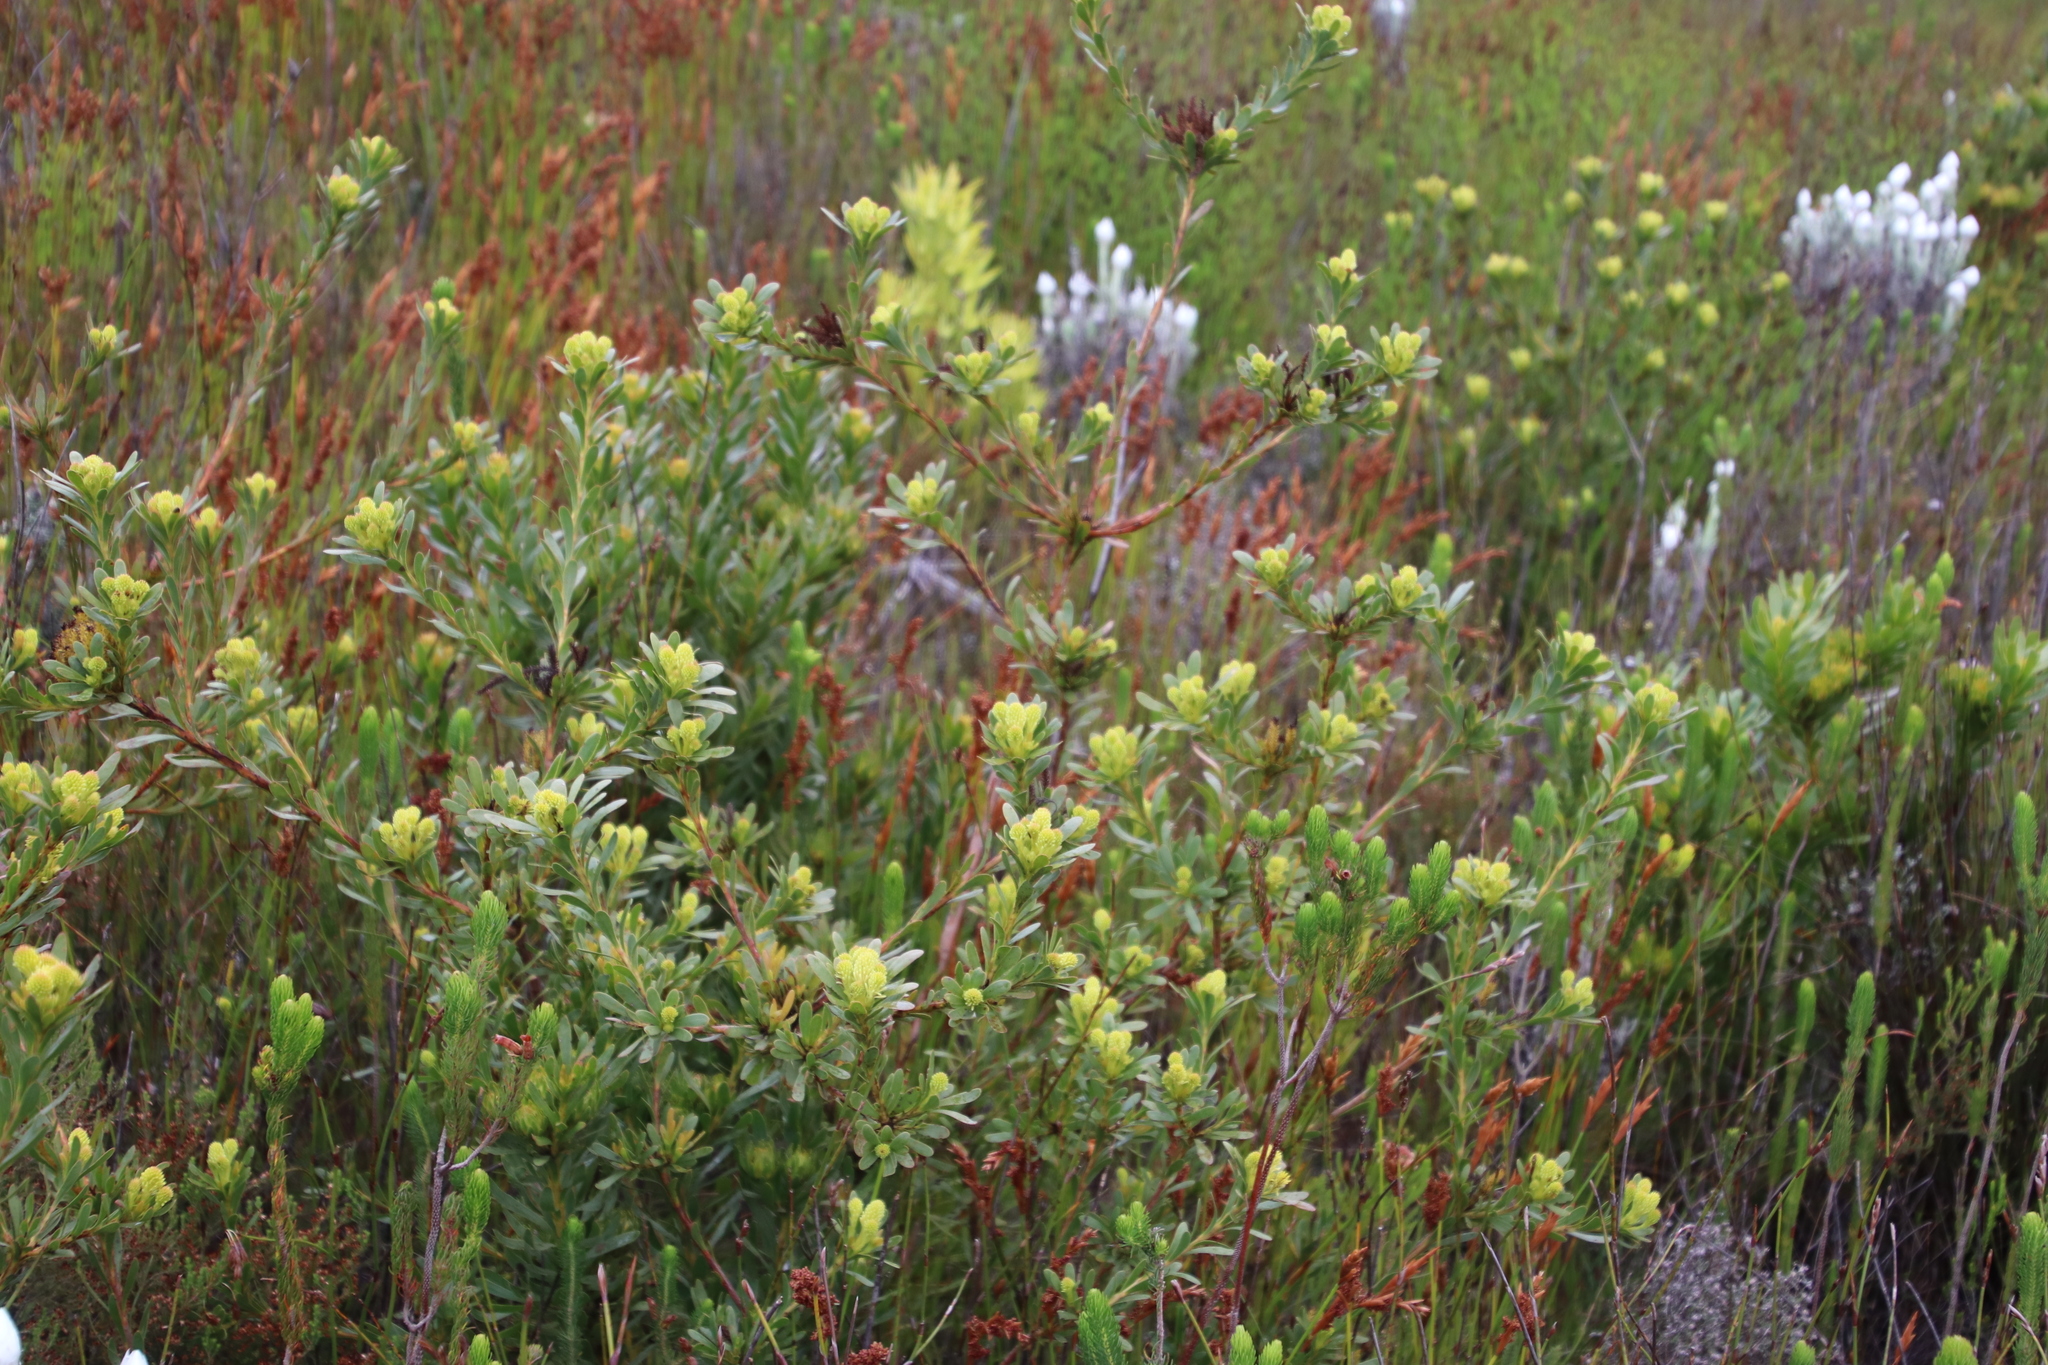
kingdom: Plantae
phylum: Tracheophyta
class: Magnoliopsida
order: Proteales
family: Proteaceae
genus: Aulax
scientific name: Aulax umbellata
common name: Broad-leaf featherbush
